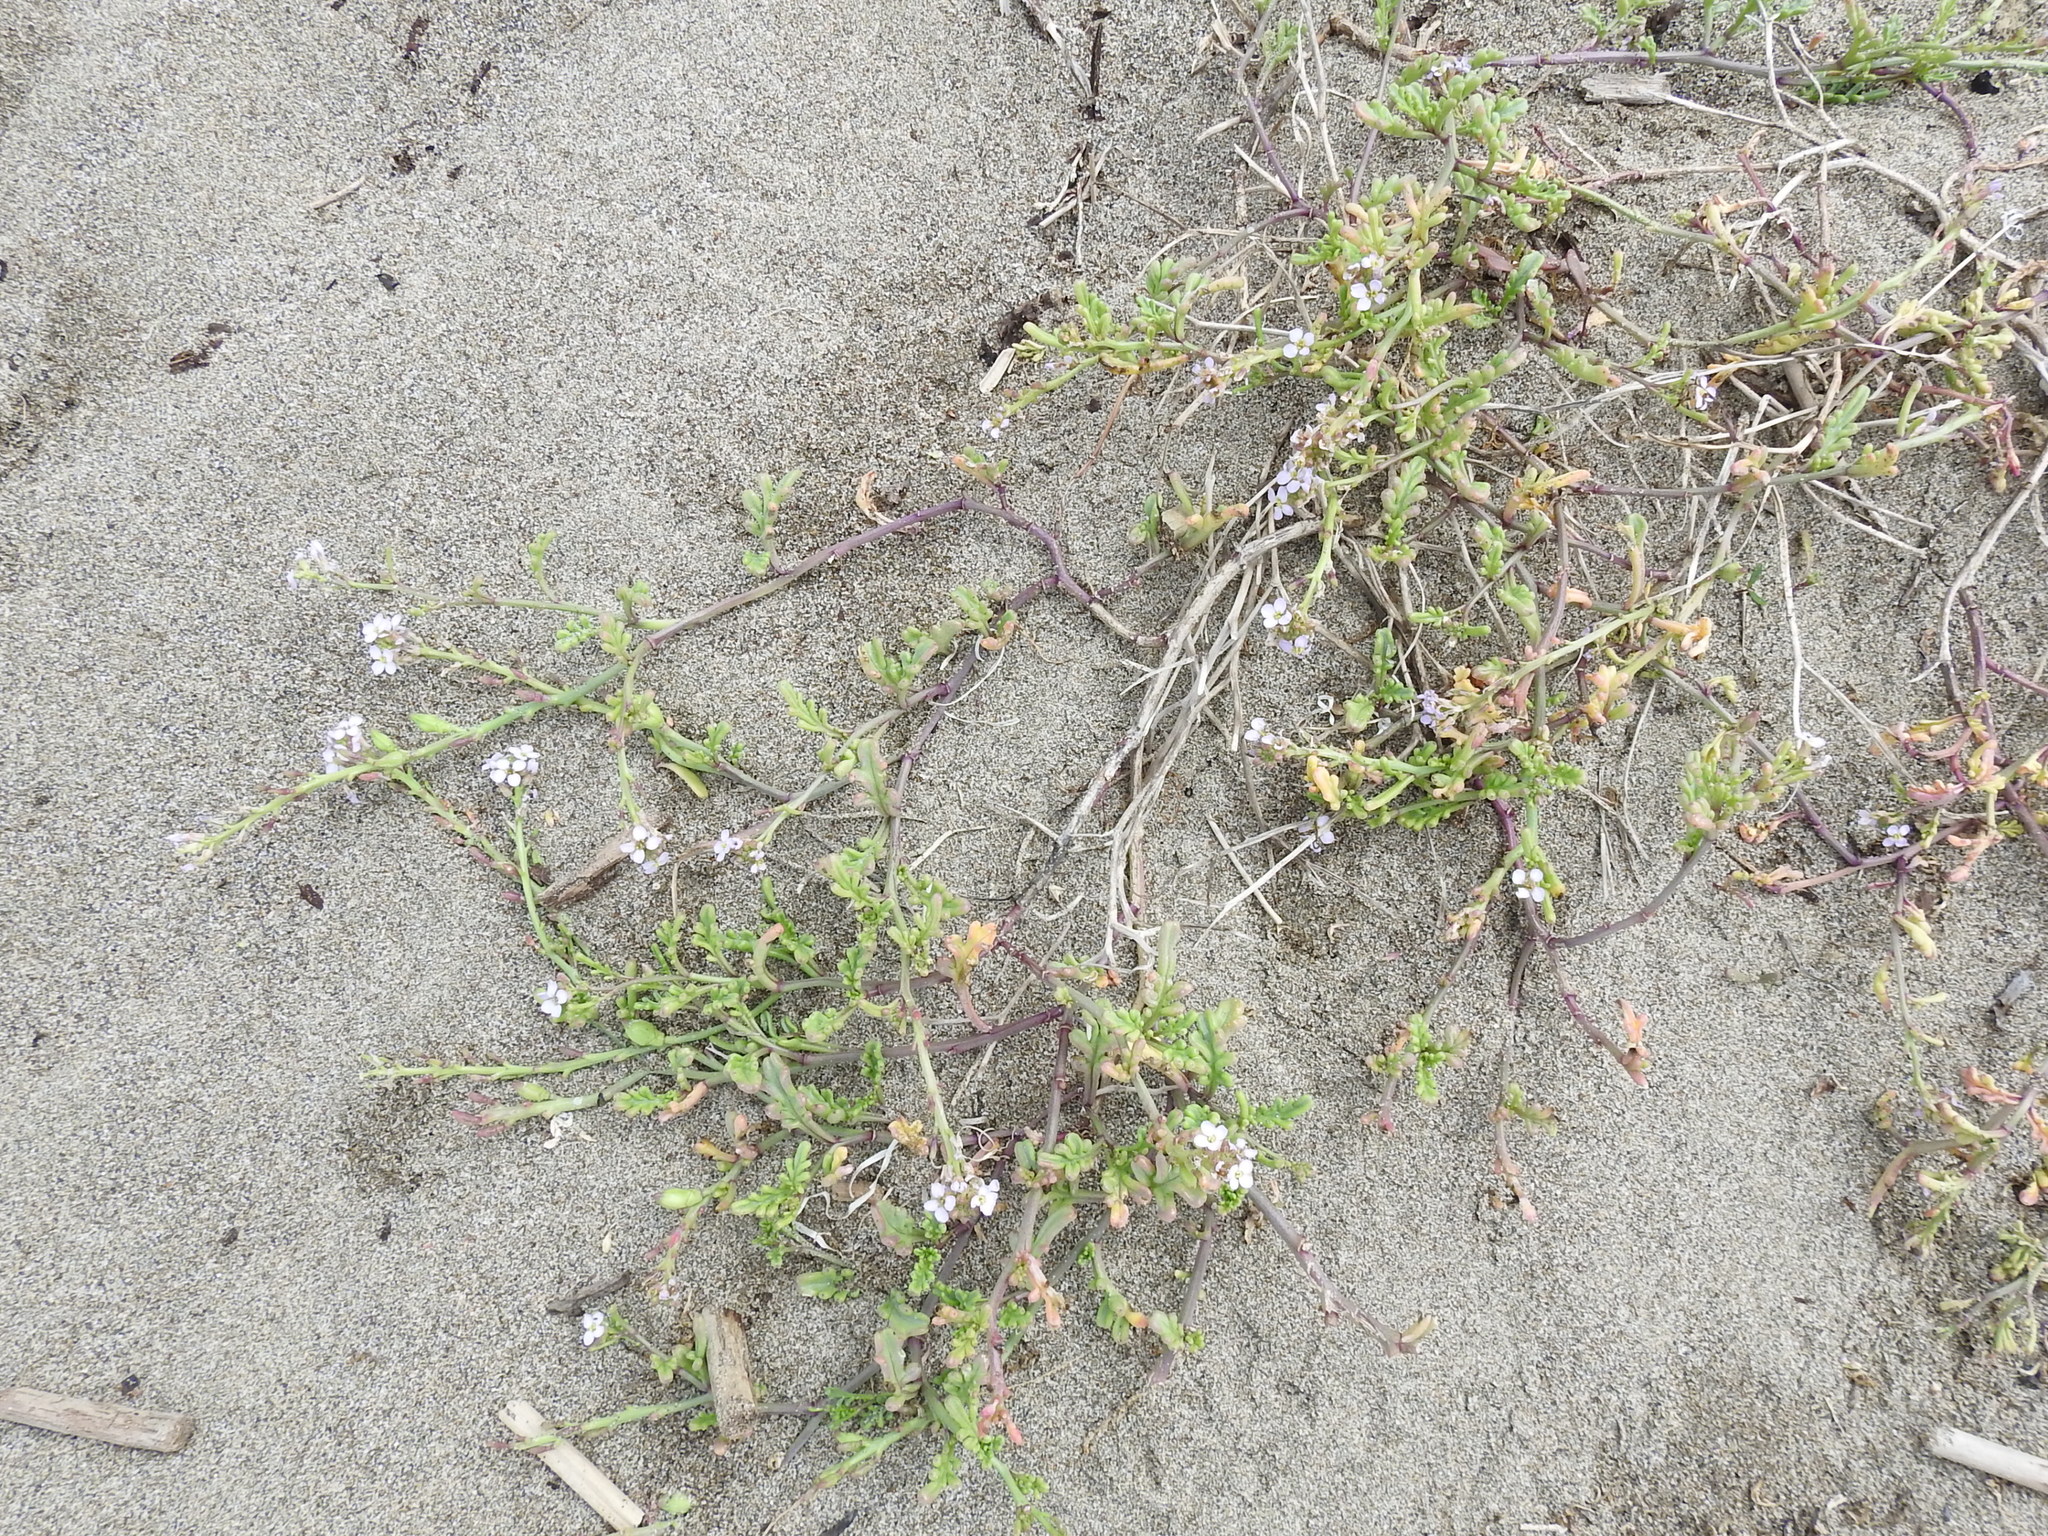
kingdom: Plantae
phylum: Tracheophyta
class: Magnoliopsida
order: Brassicales
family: Brassicaceae
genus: Cakile
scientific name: Cakile maritima
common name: Sea rocket
